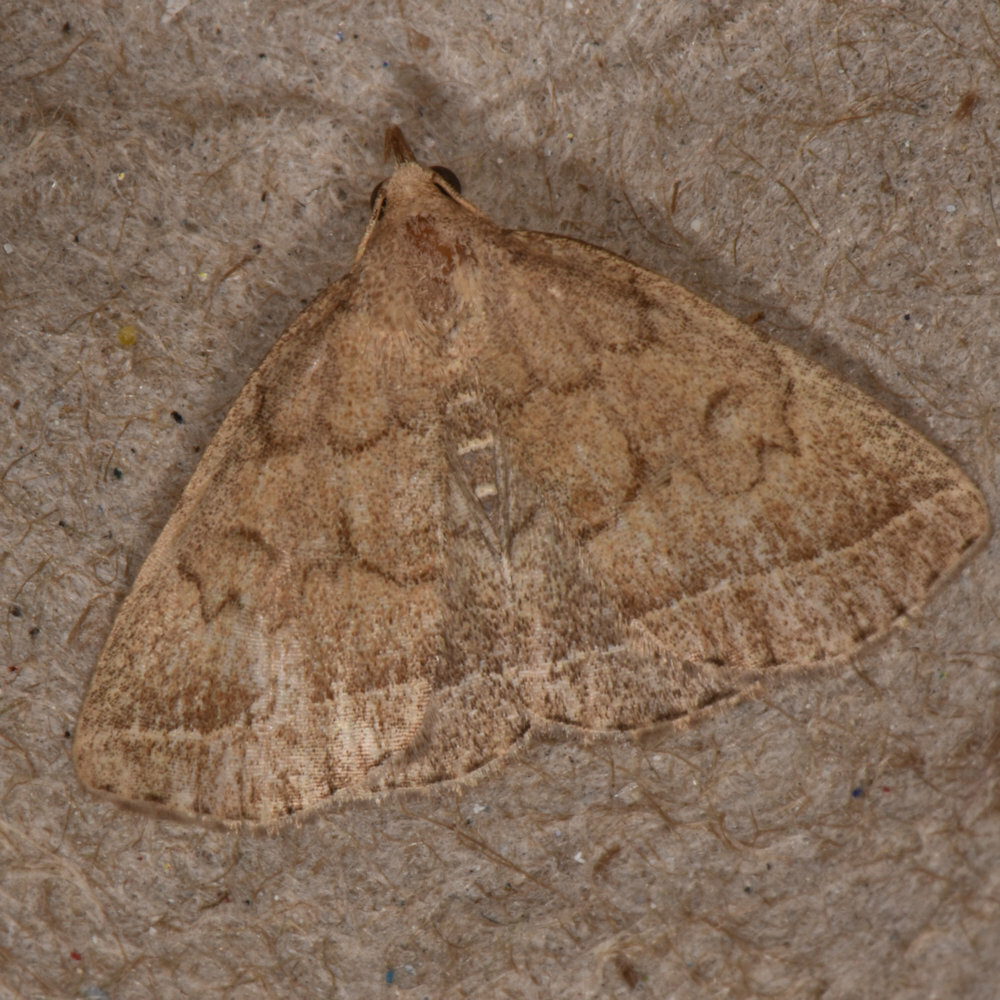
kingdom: Animalia
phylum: Arthropoda
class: Insecta
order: Lepidoptera
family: Erebidae
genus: Zanclognatha
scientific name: Zanclognatha jacchusalis
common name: Yellowish zanclognatha
